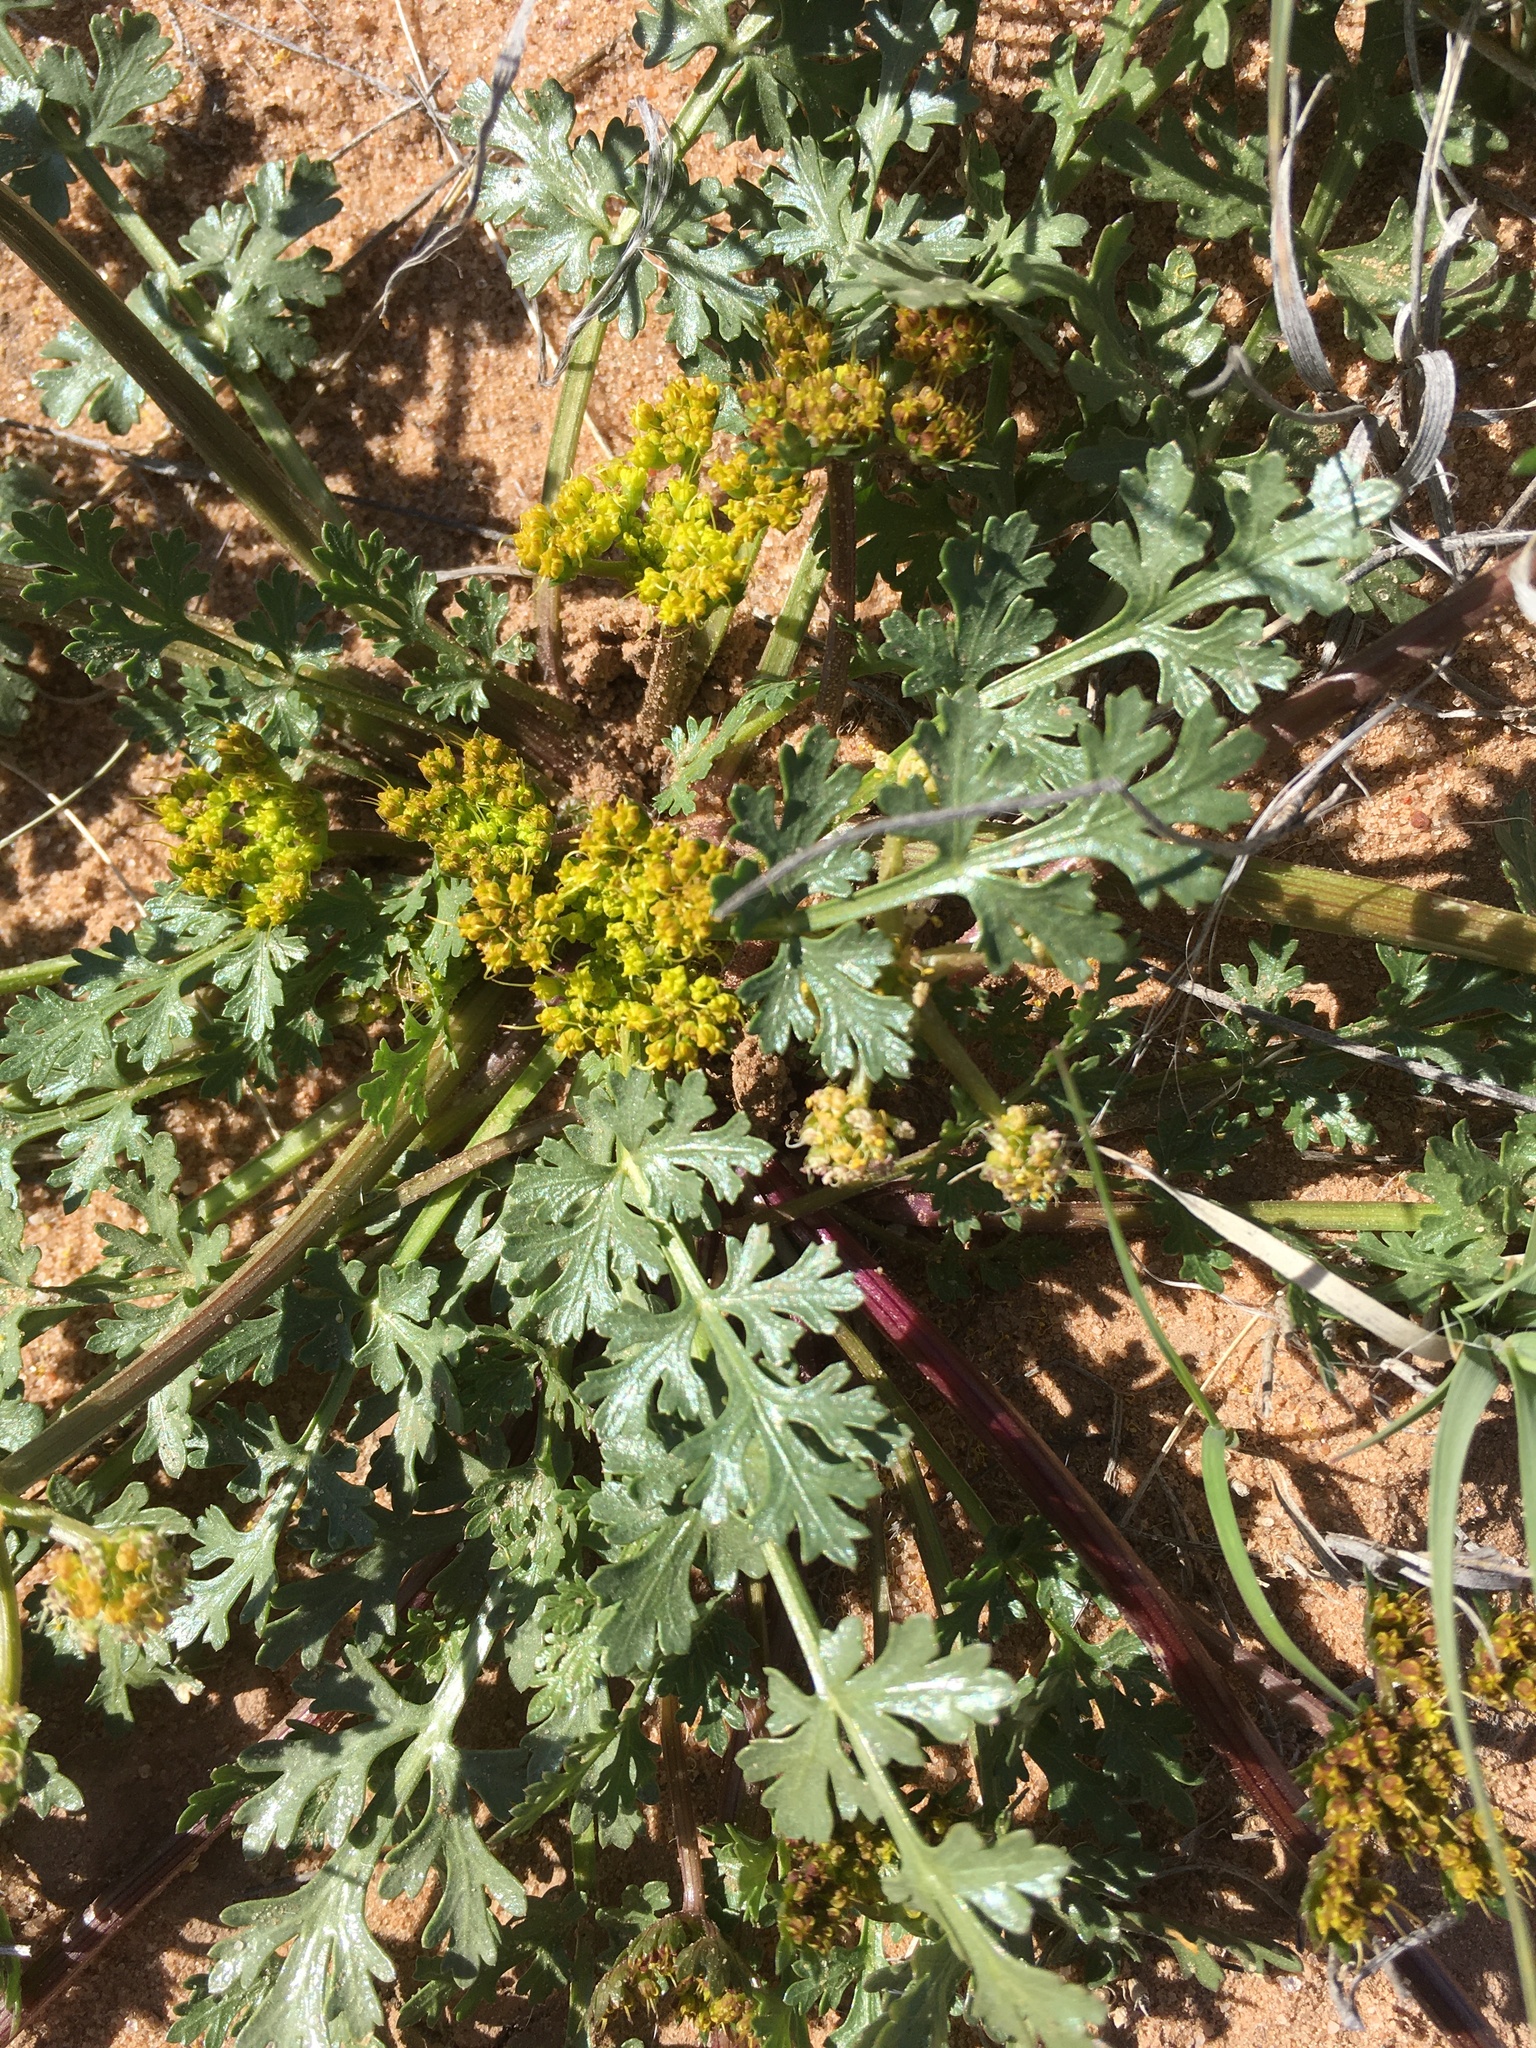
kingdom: Plantae
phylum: Tracheophyta
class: Magnoliopsida
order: Apiales
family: Apiaceae
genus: Cymopterus
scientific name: Cymopterus glomeratus
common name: Plains spring parsley
